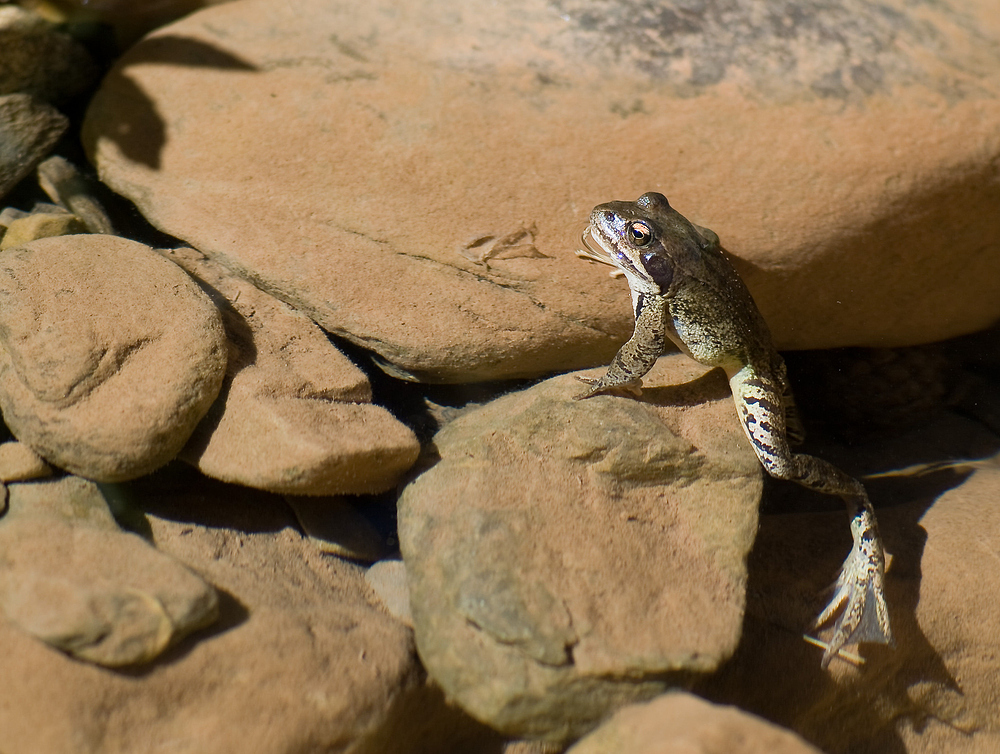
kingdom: Animalia
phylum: Chordata
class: Amphibia
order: Anura
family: Ranidae
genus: Rana
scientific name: Rana temporaria
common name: Common frog
